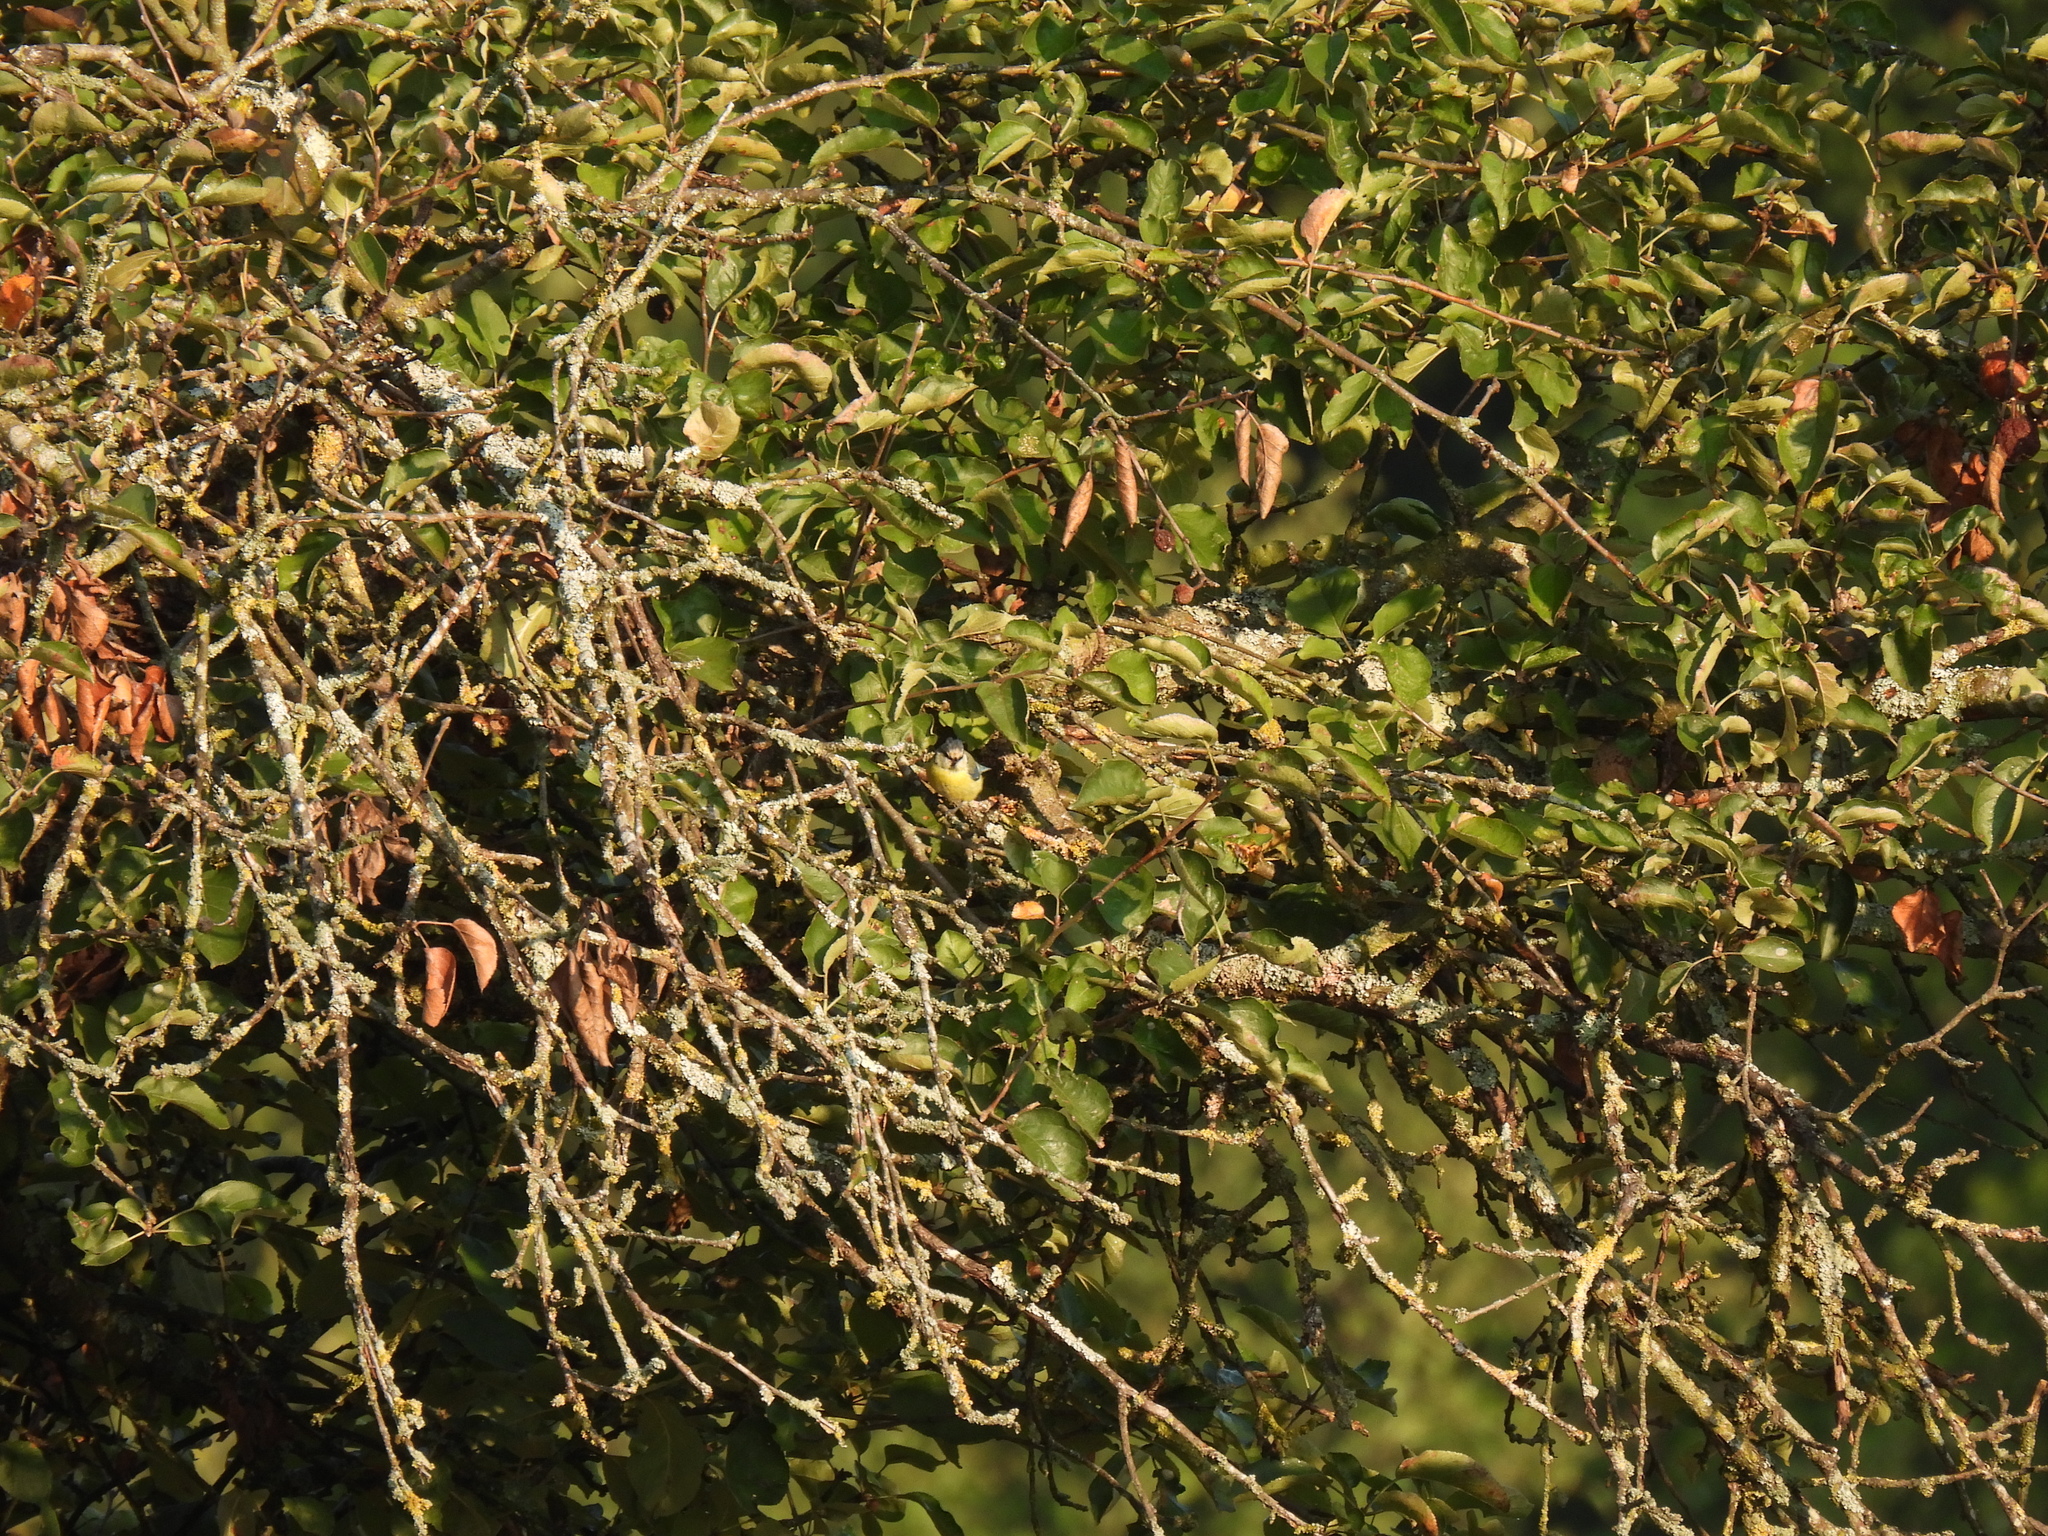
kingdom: Animalia
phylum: Chordata
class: Aves
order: Passeriformes
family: Paridae
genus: Cyanistes
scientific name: Cyanistes caeruleus
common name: Eurasian blue tit
